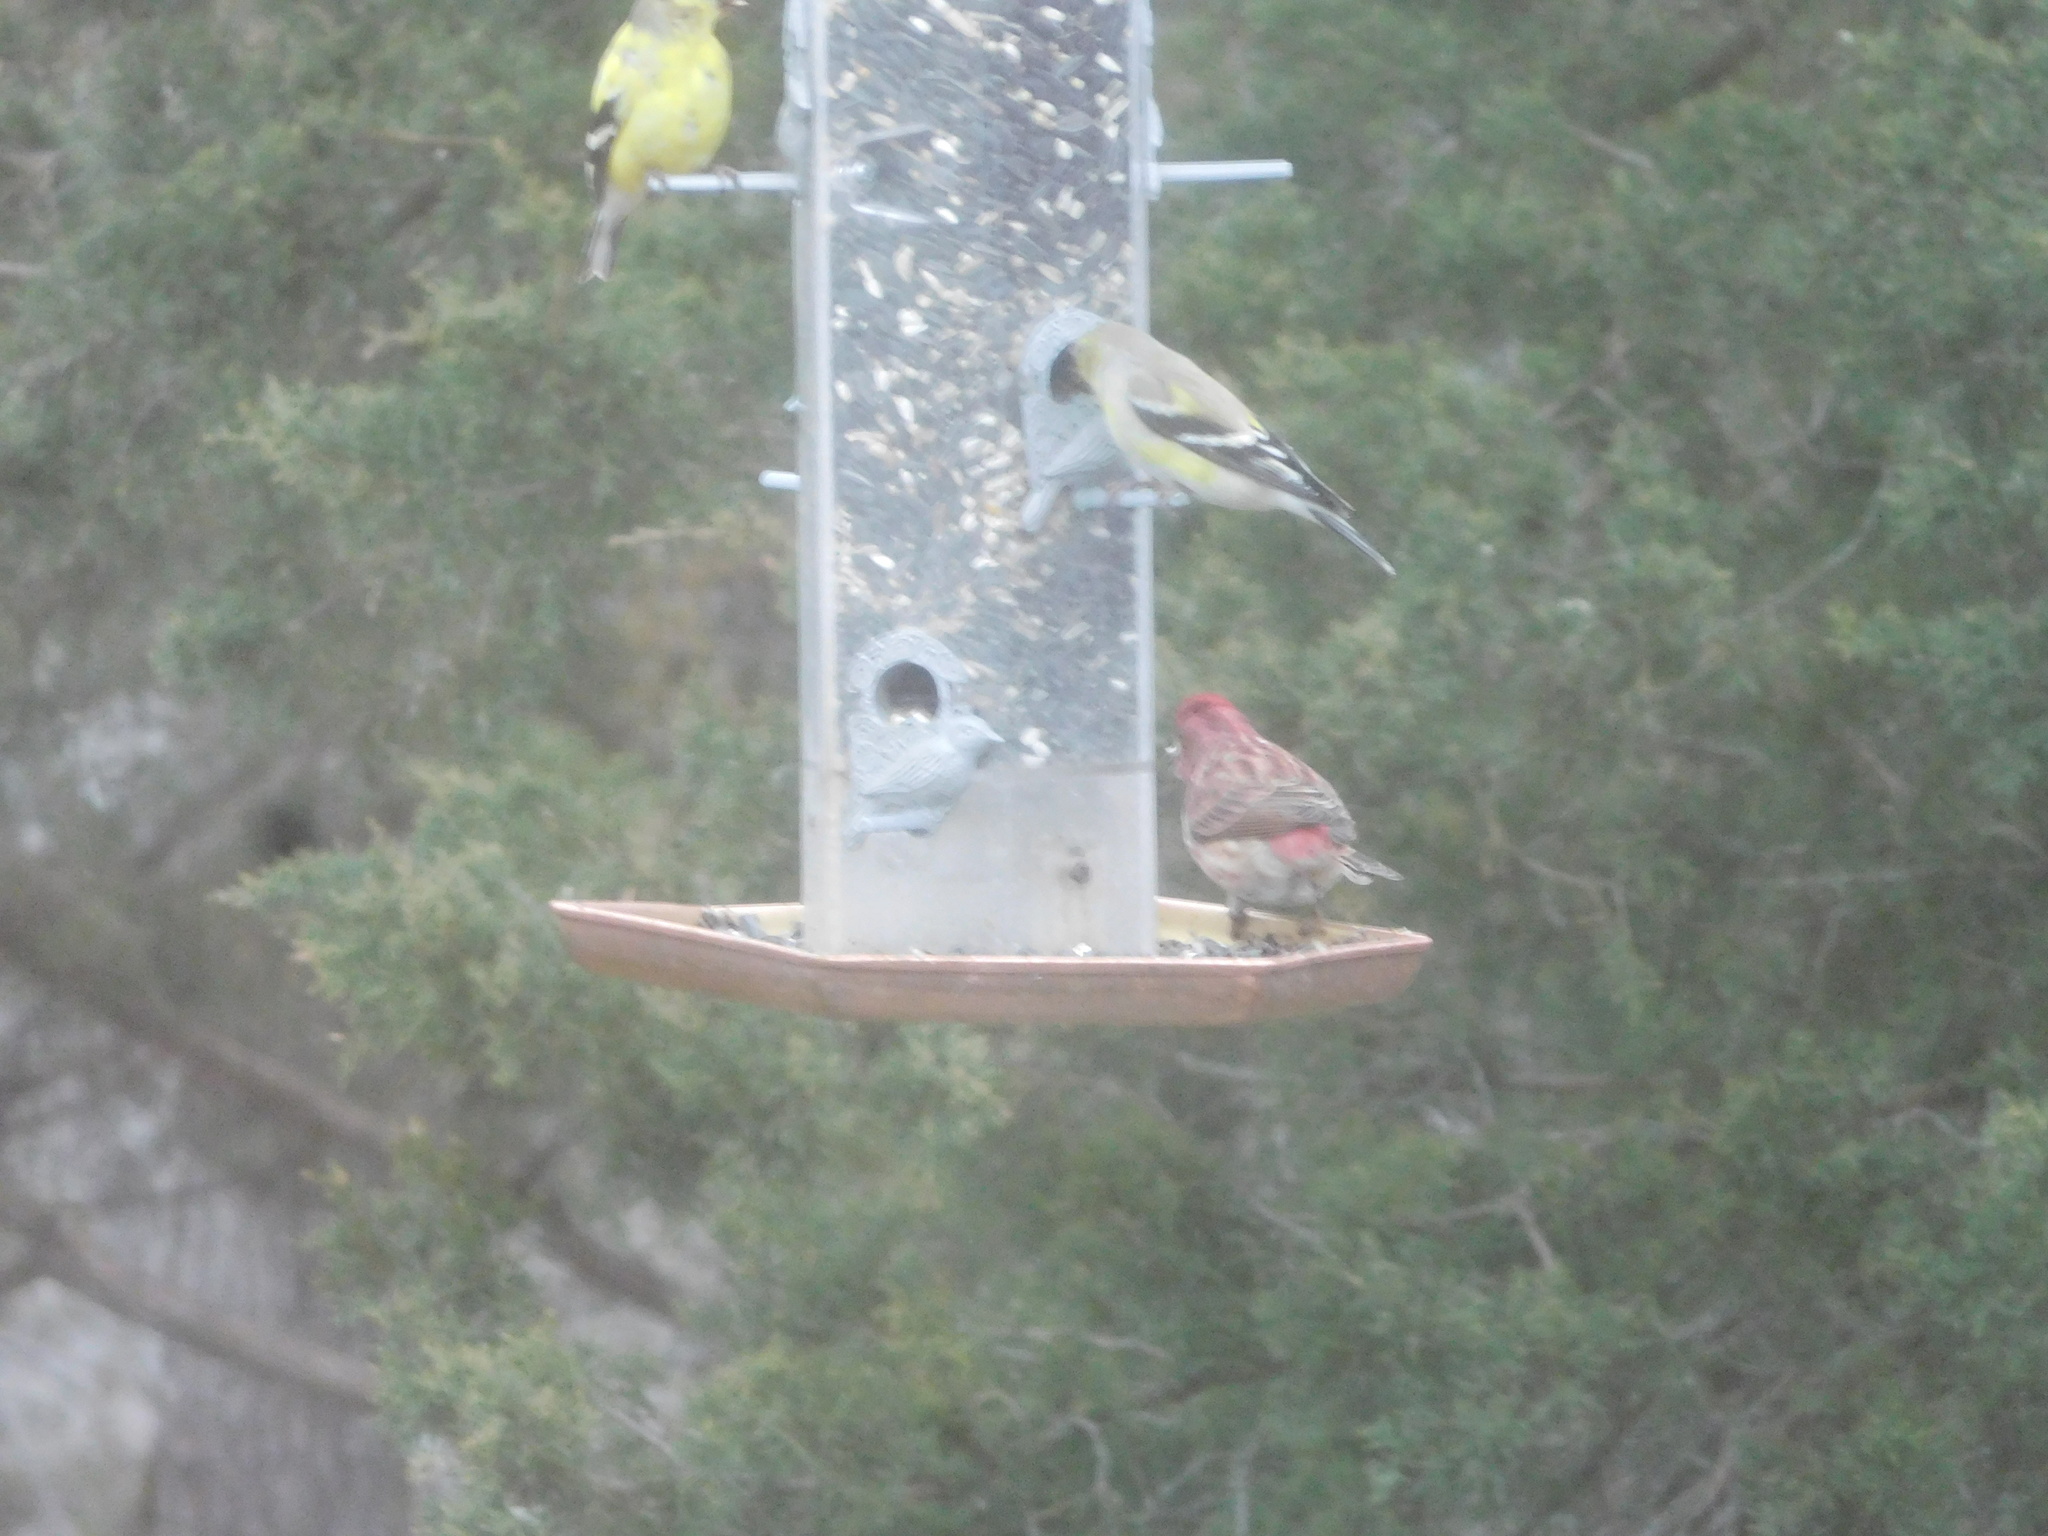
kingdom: Animalia
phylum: Chordata
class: Aves
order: Passeriformes
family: Fringillidae
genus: Haemorhous
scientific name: Haemorhous purpureus
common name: Purple finch
